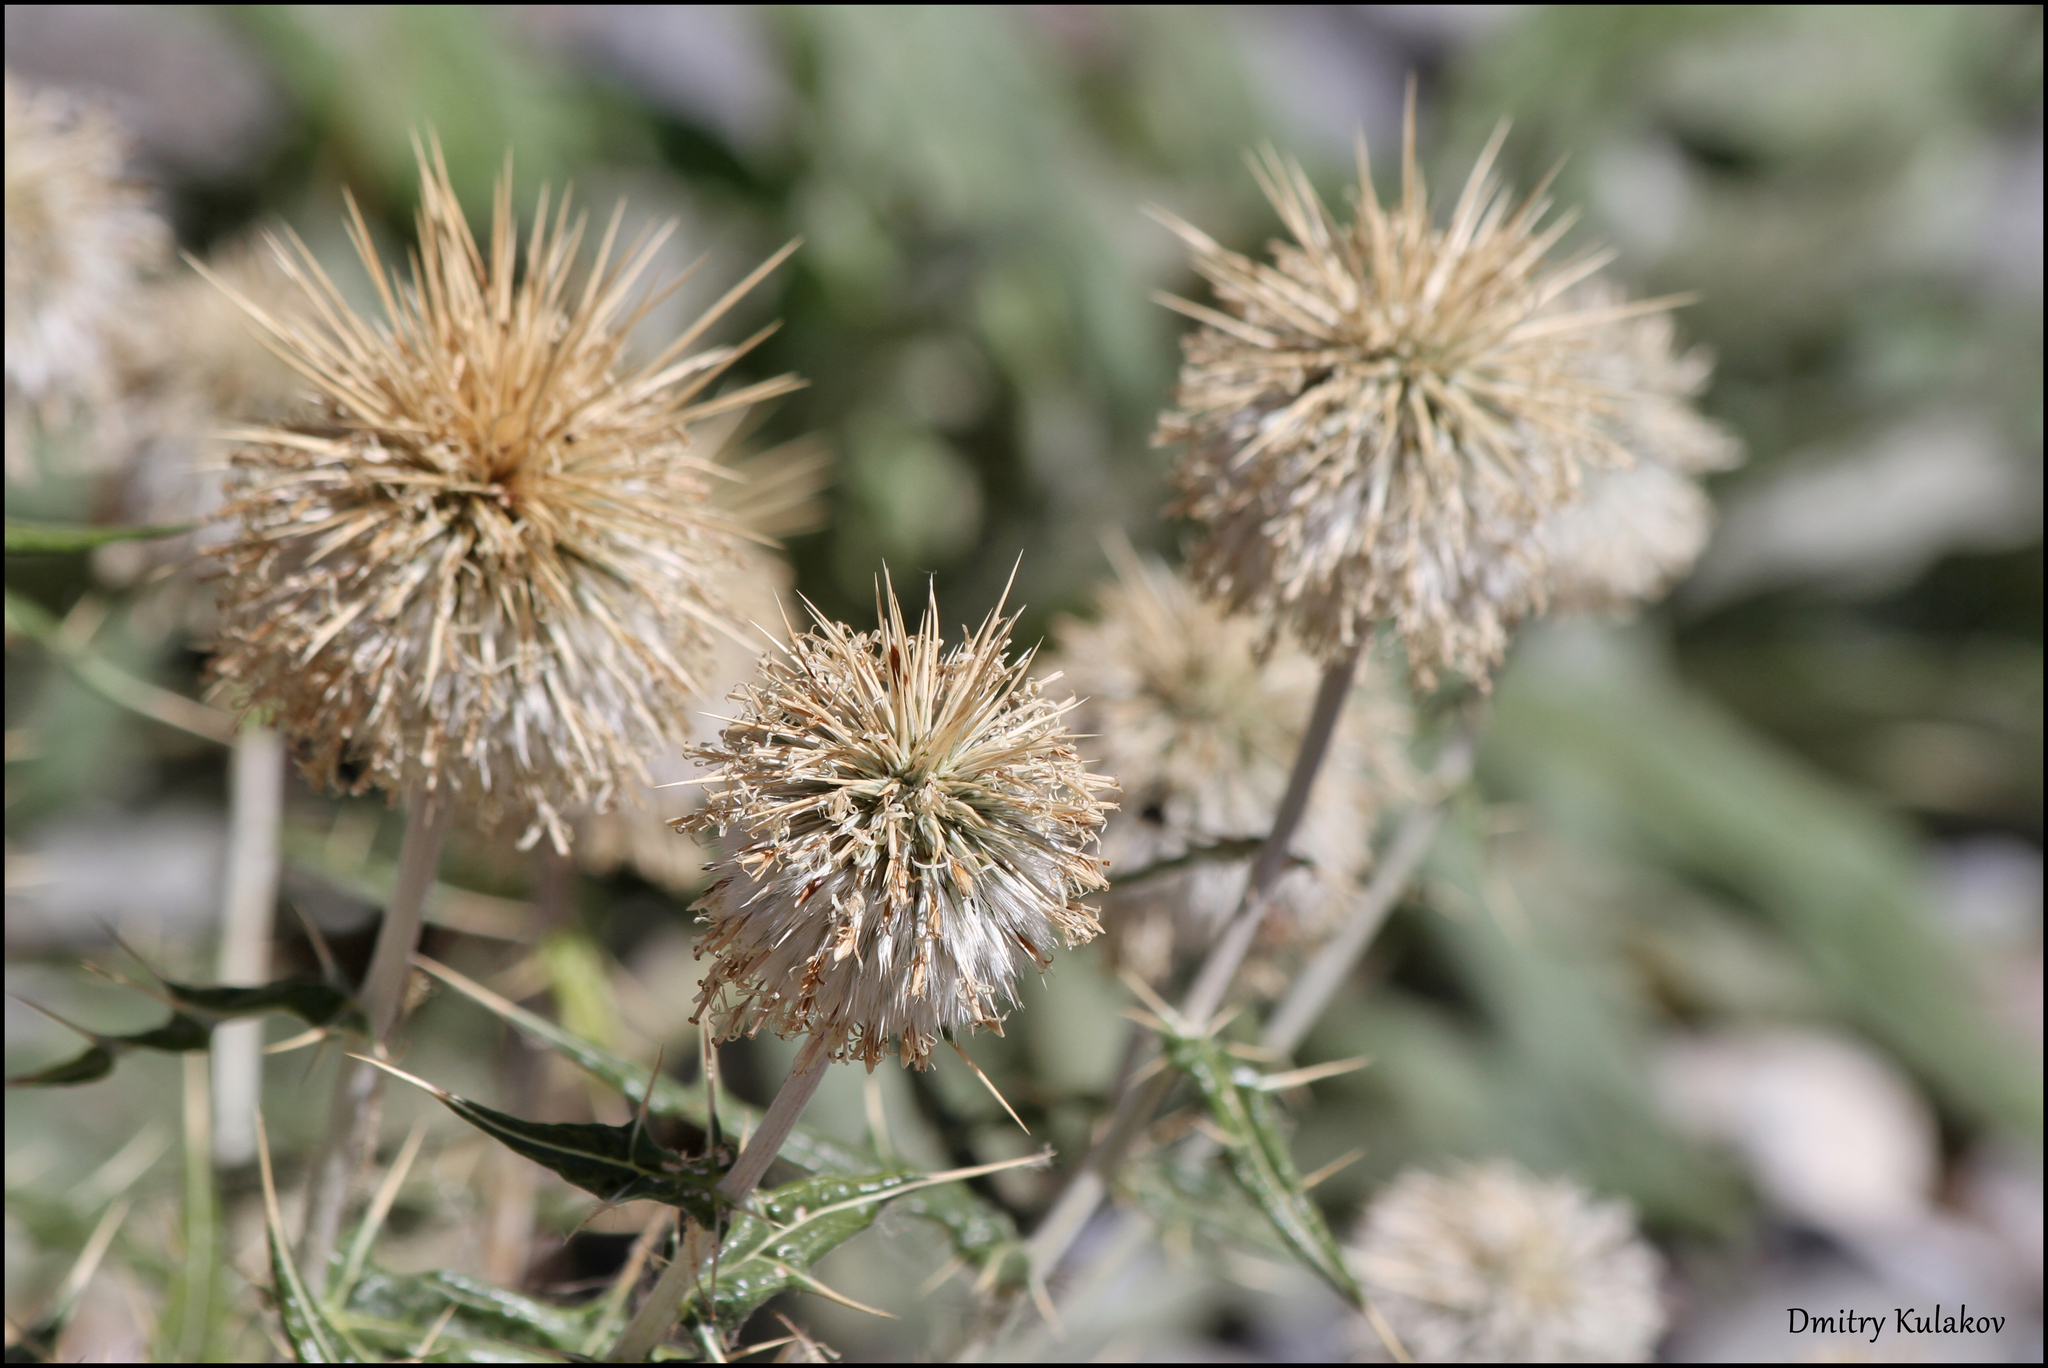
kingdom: Plantae
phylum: Tracheophyta
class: Magnoliopsida
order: Asterales
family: Asteraceae
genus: Echinops
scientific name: Echinops maracandicus
